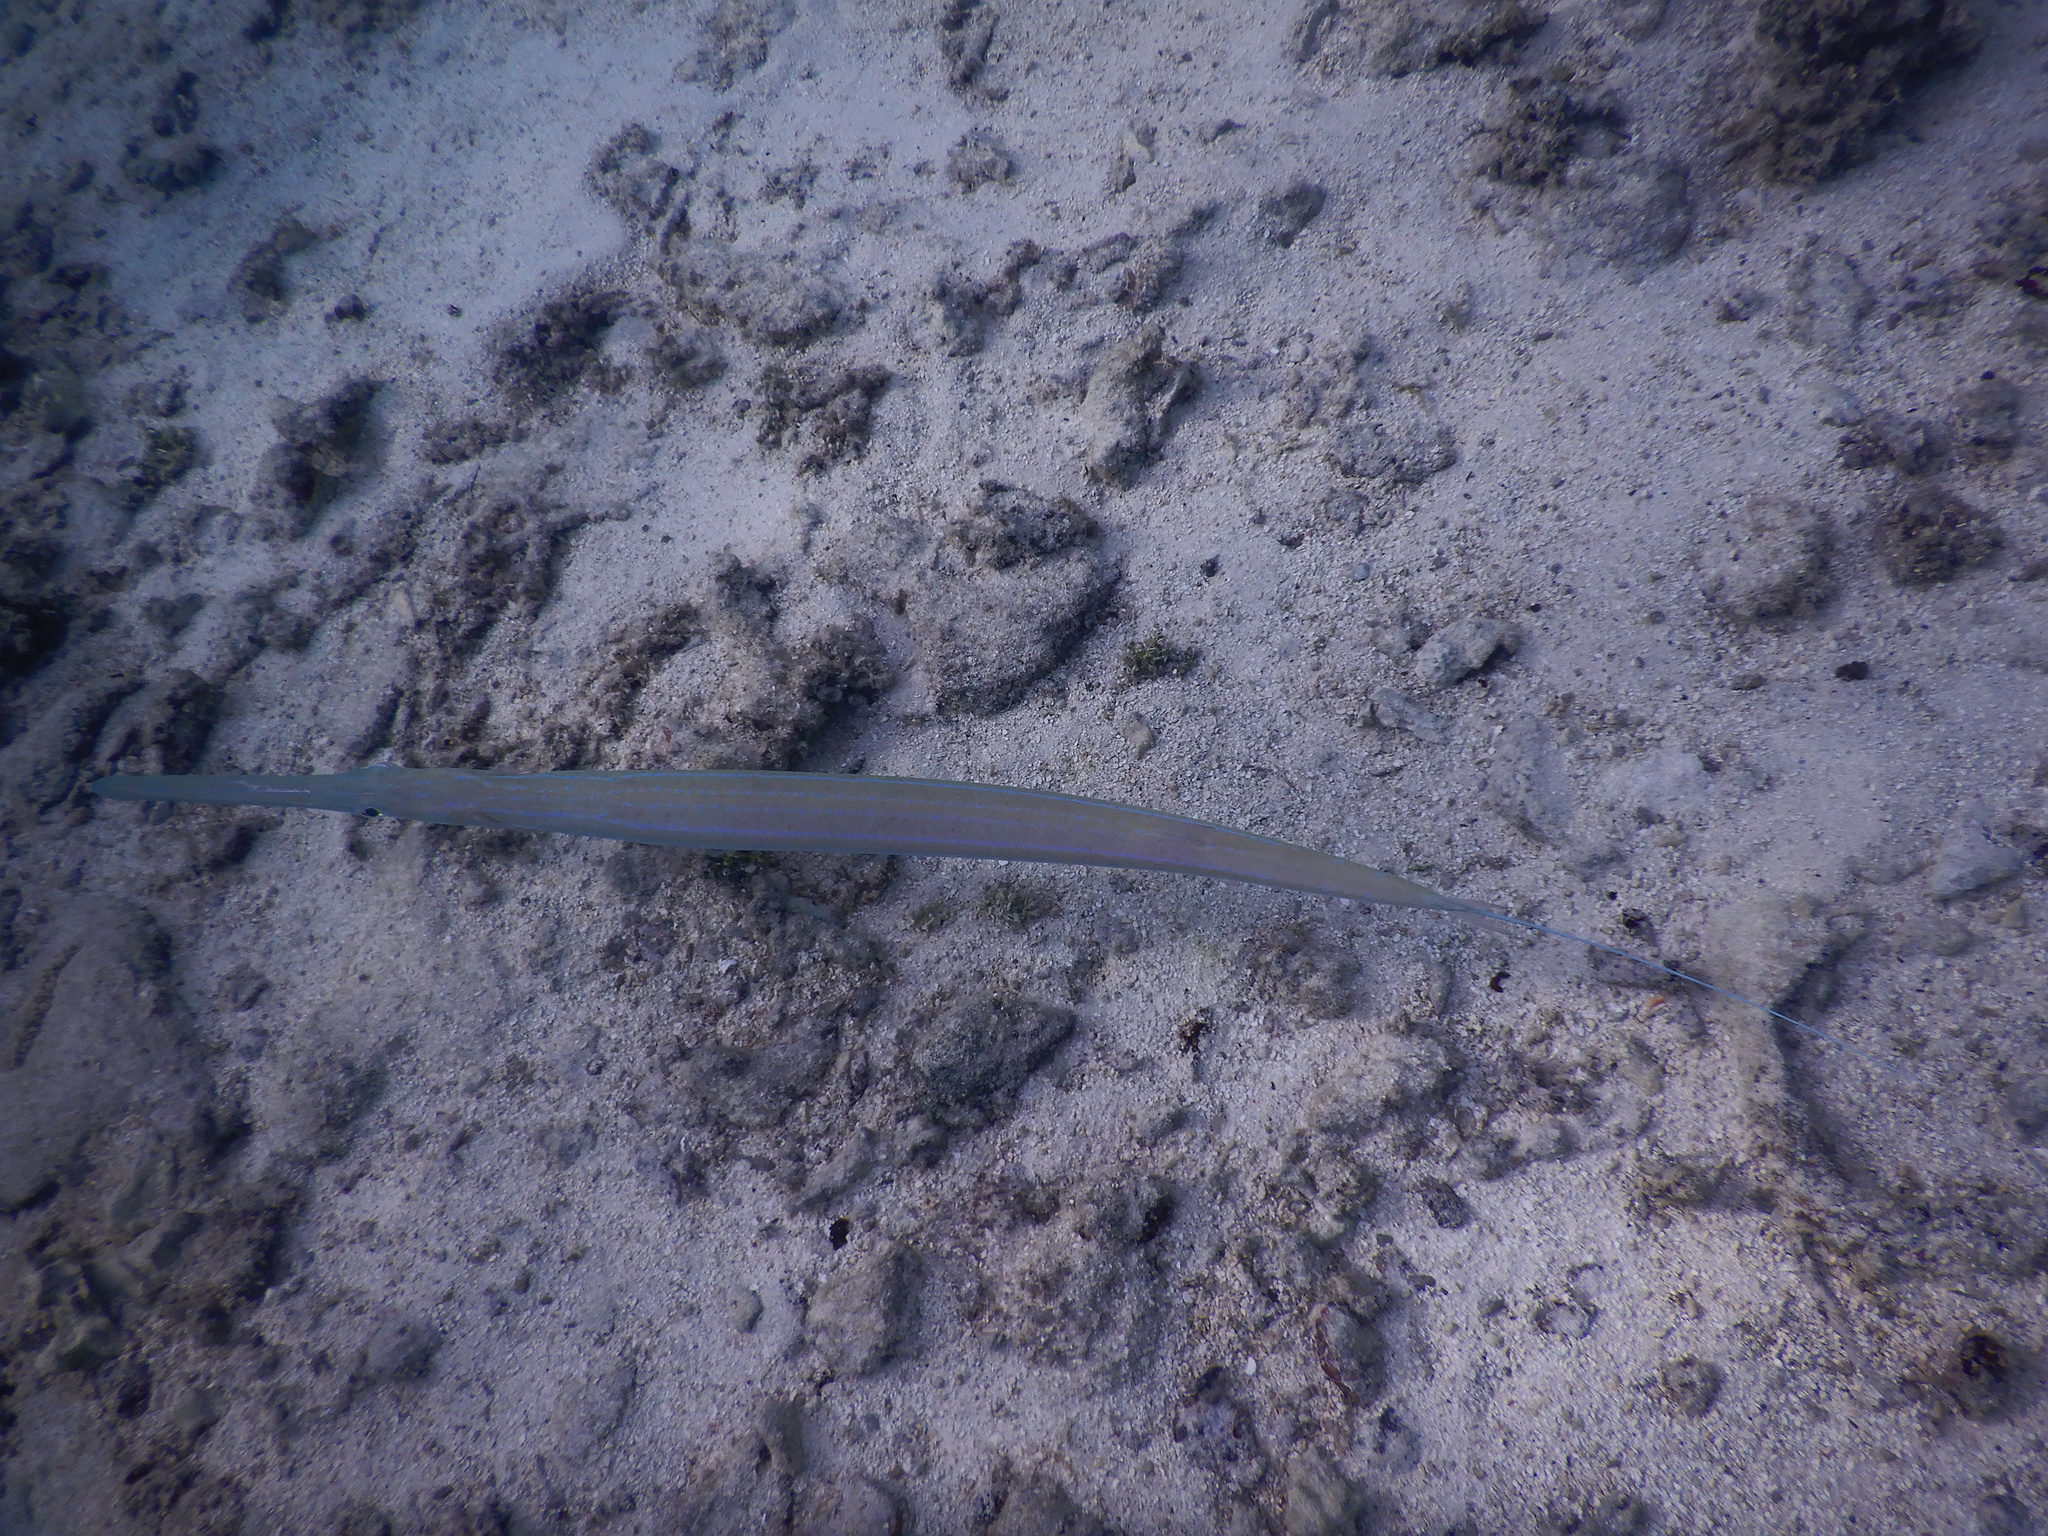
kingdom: Animalia
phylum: Chordata
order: Syngnathiformes
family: Fistulariidae
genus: Fistularia
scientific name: Fistularia commersonii
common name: Bluespotted cornetfish
